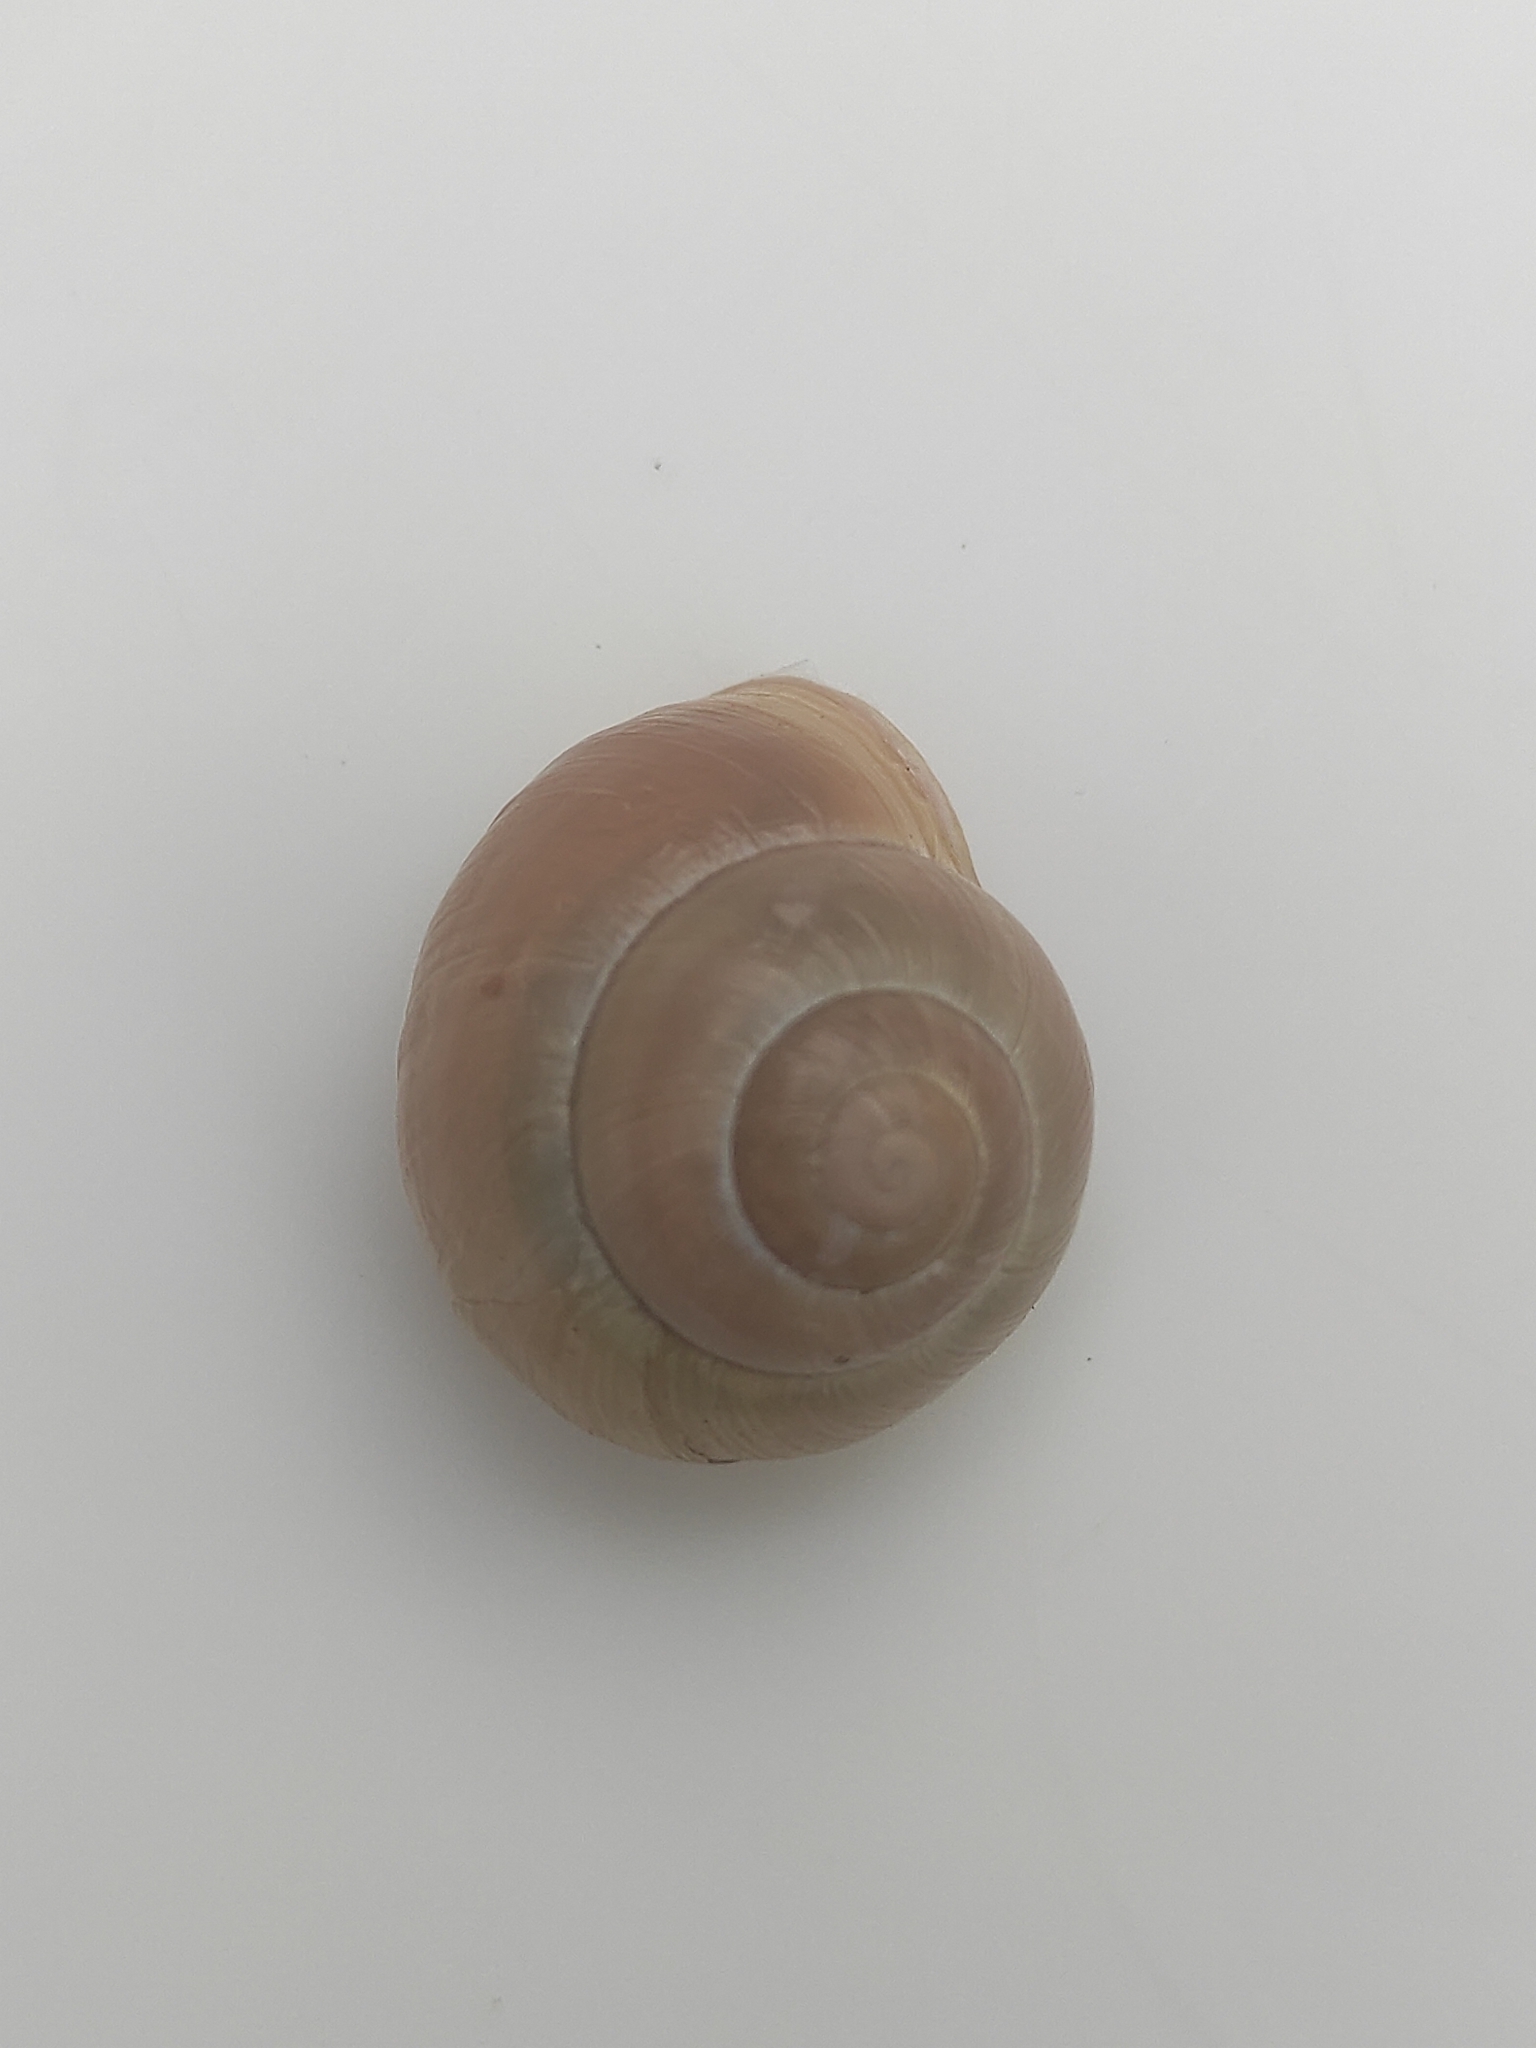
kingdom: Animalia
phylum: Mollusca
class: Gastropoda
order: Stylommatophora
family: Helicidae
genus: Cepaea
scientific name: Cepaea hortensis
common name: White-lip gardensnail
